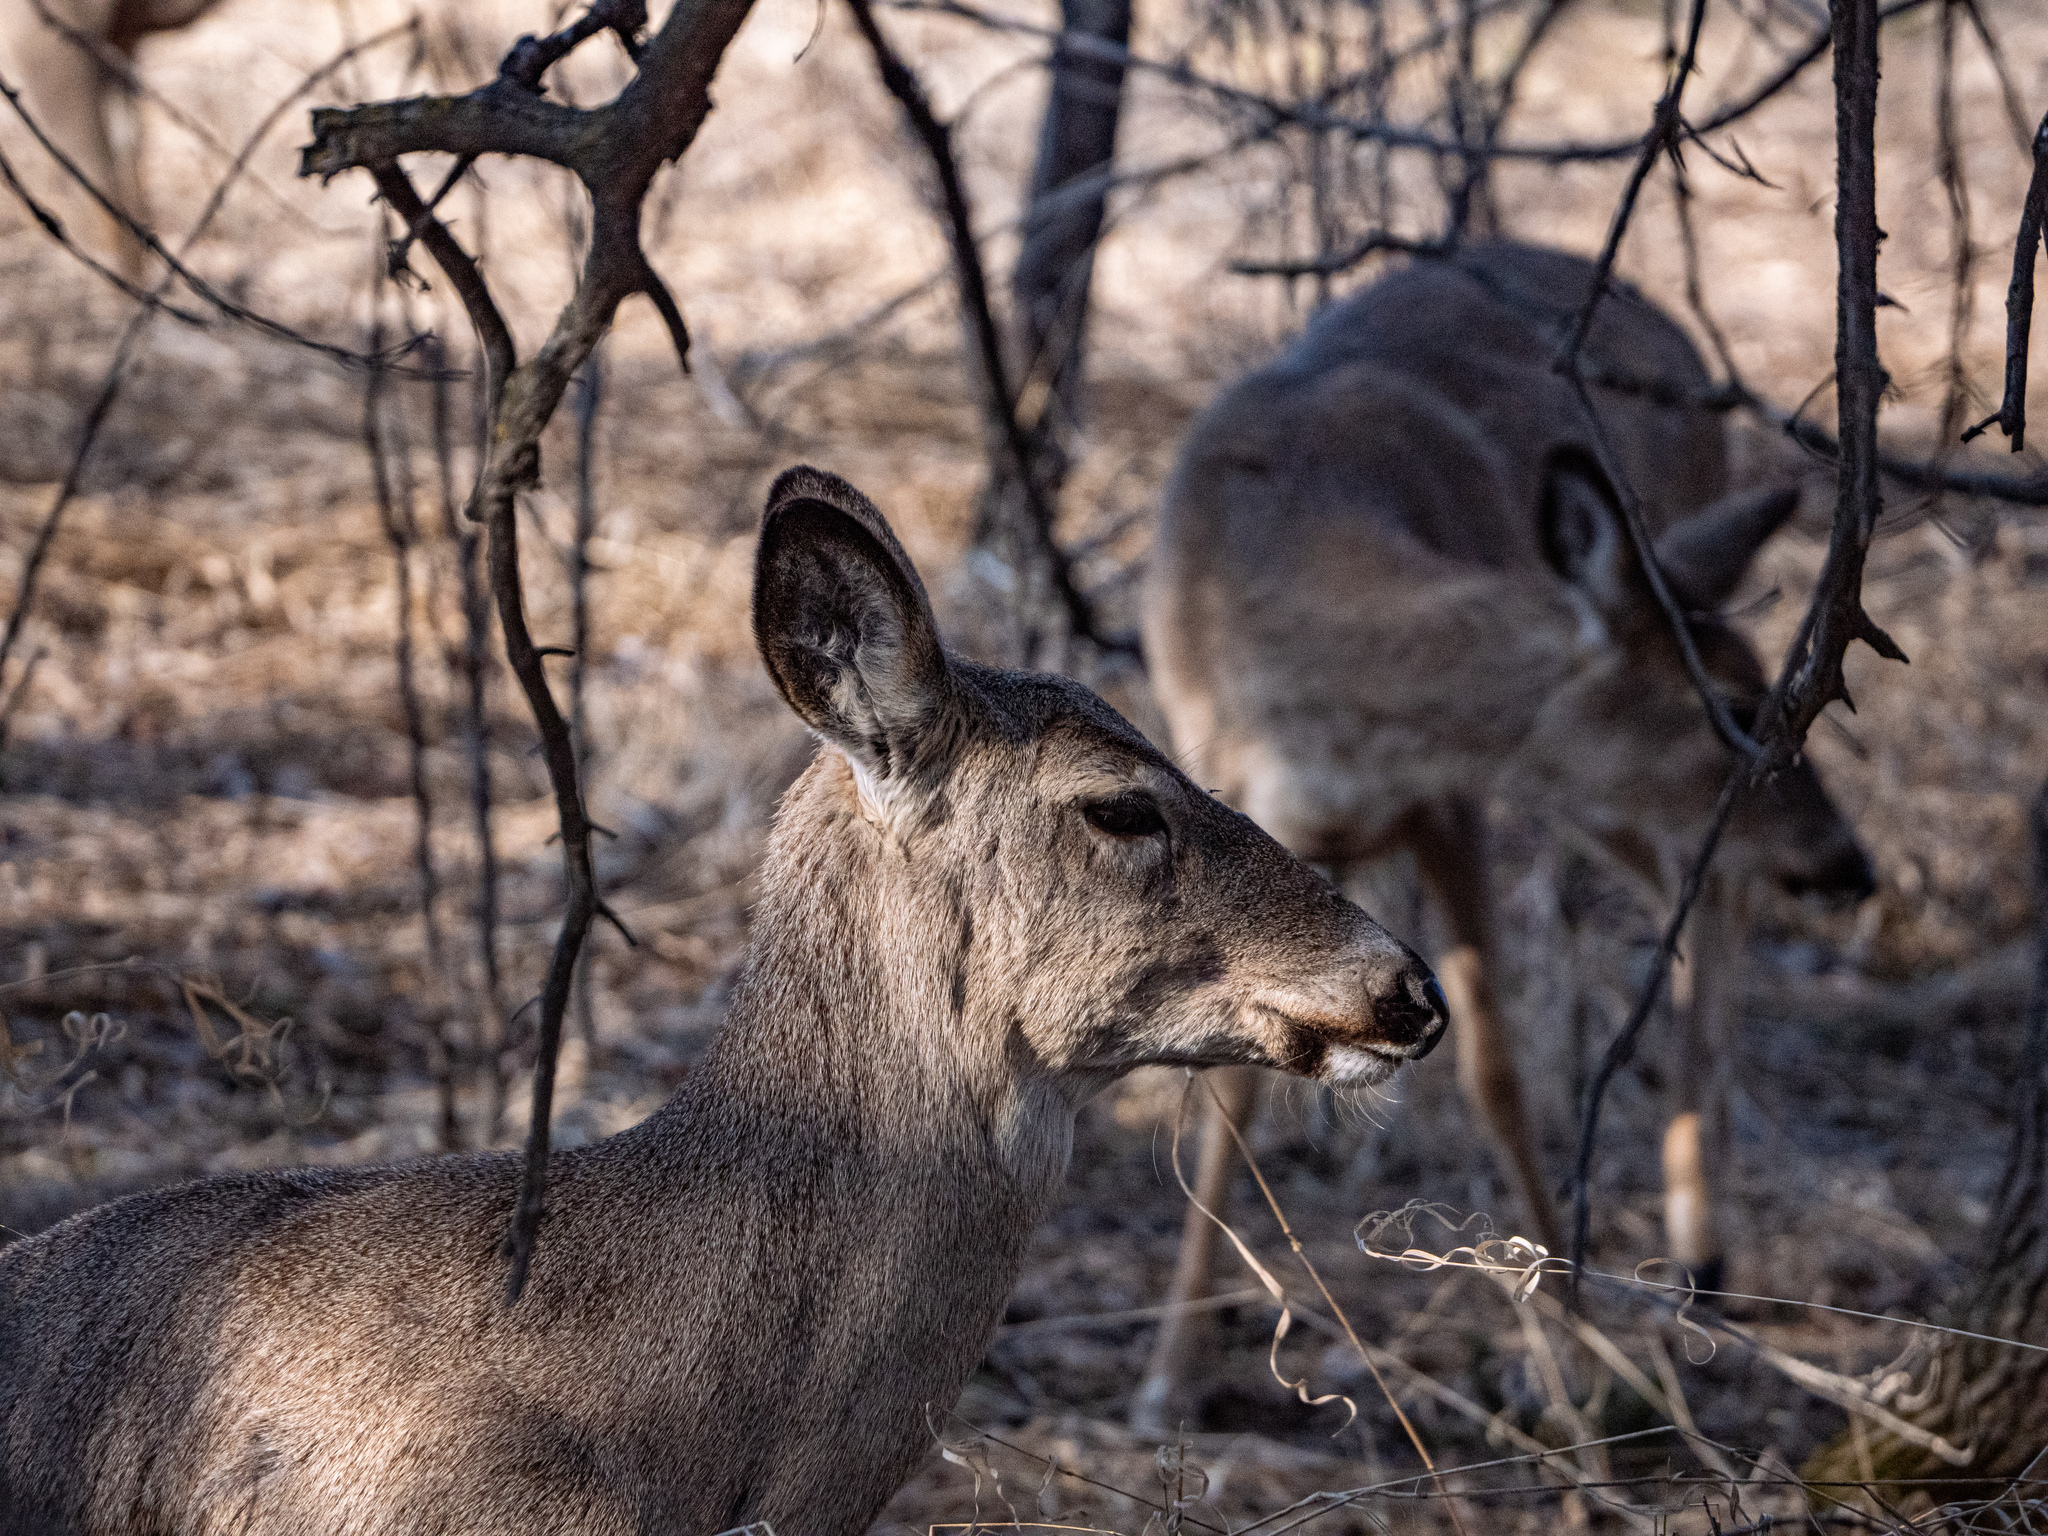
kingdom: Animalia
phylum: Chordata
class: Mammalia
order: Artiodactyla
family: Cervidae
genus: Odocoileus
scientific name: Odocoileus virginianus
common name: White-tailed deer
